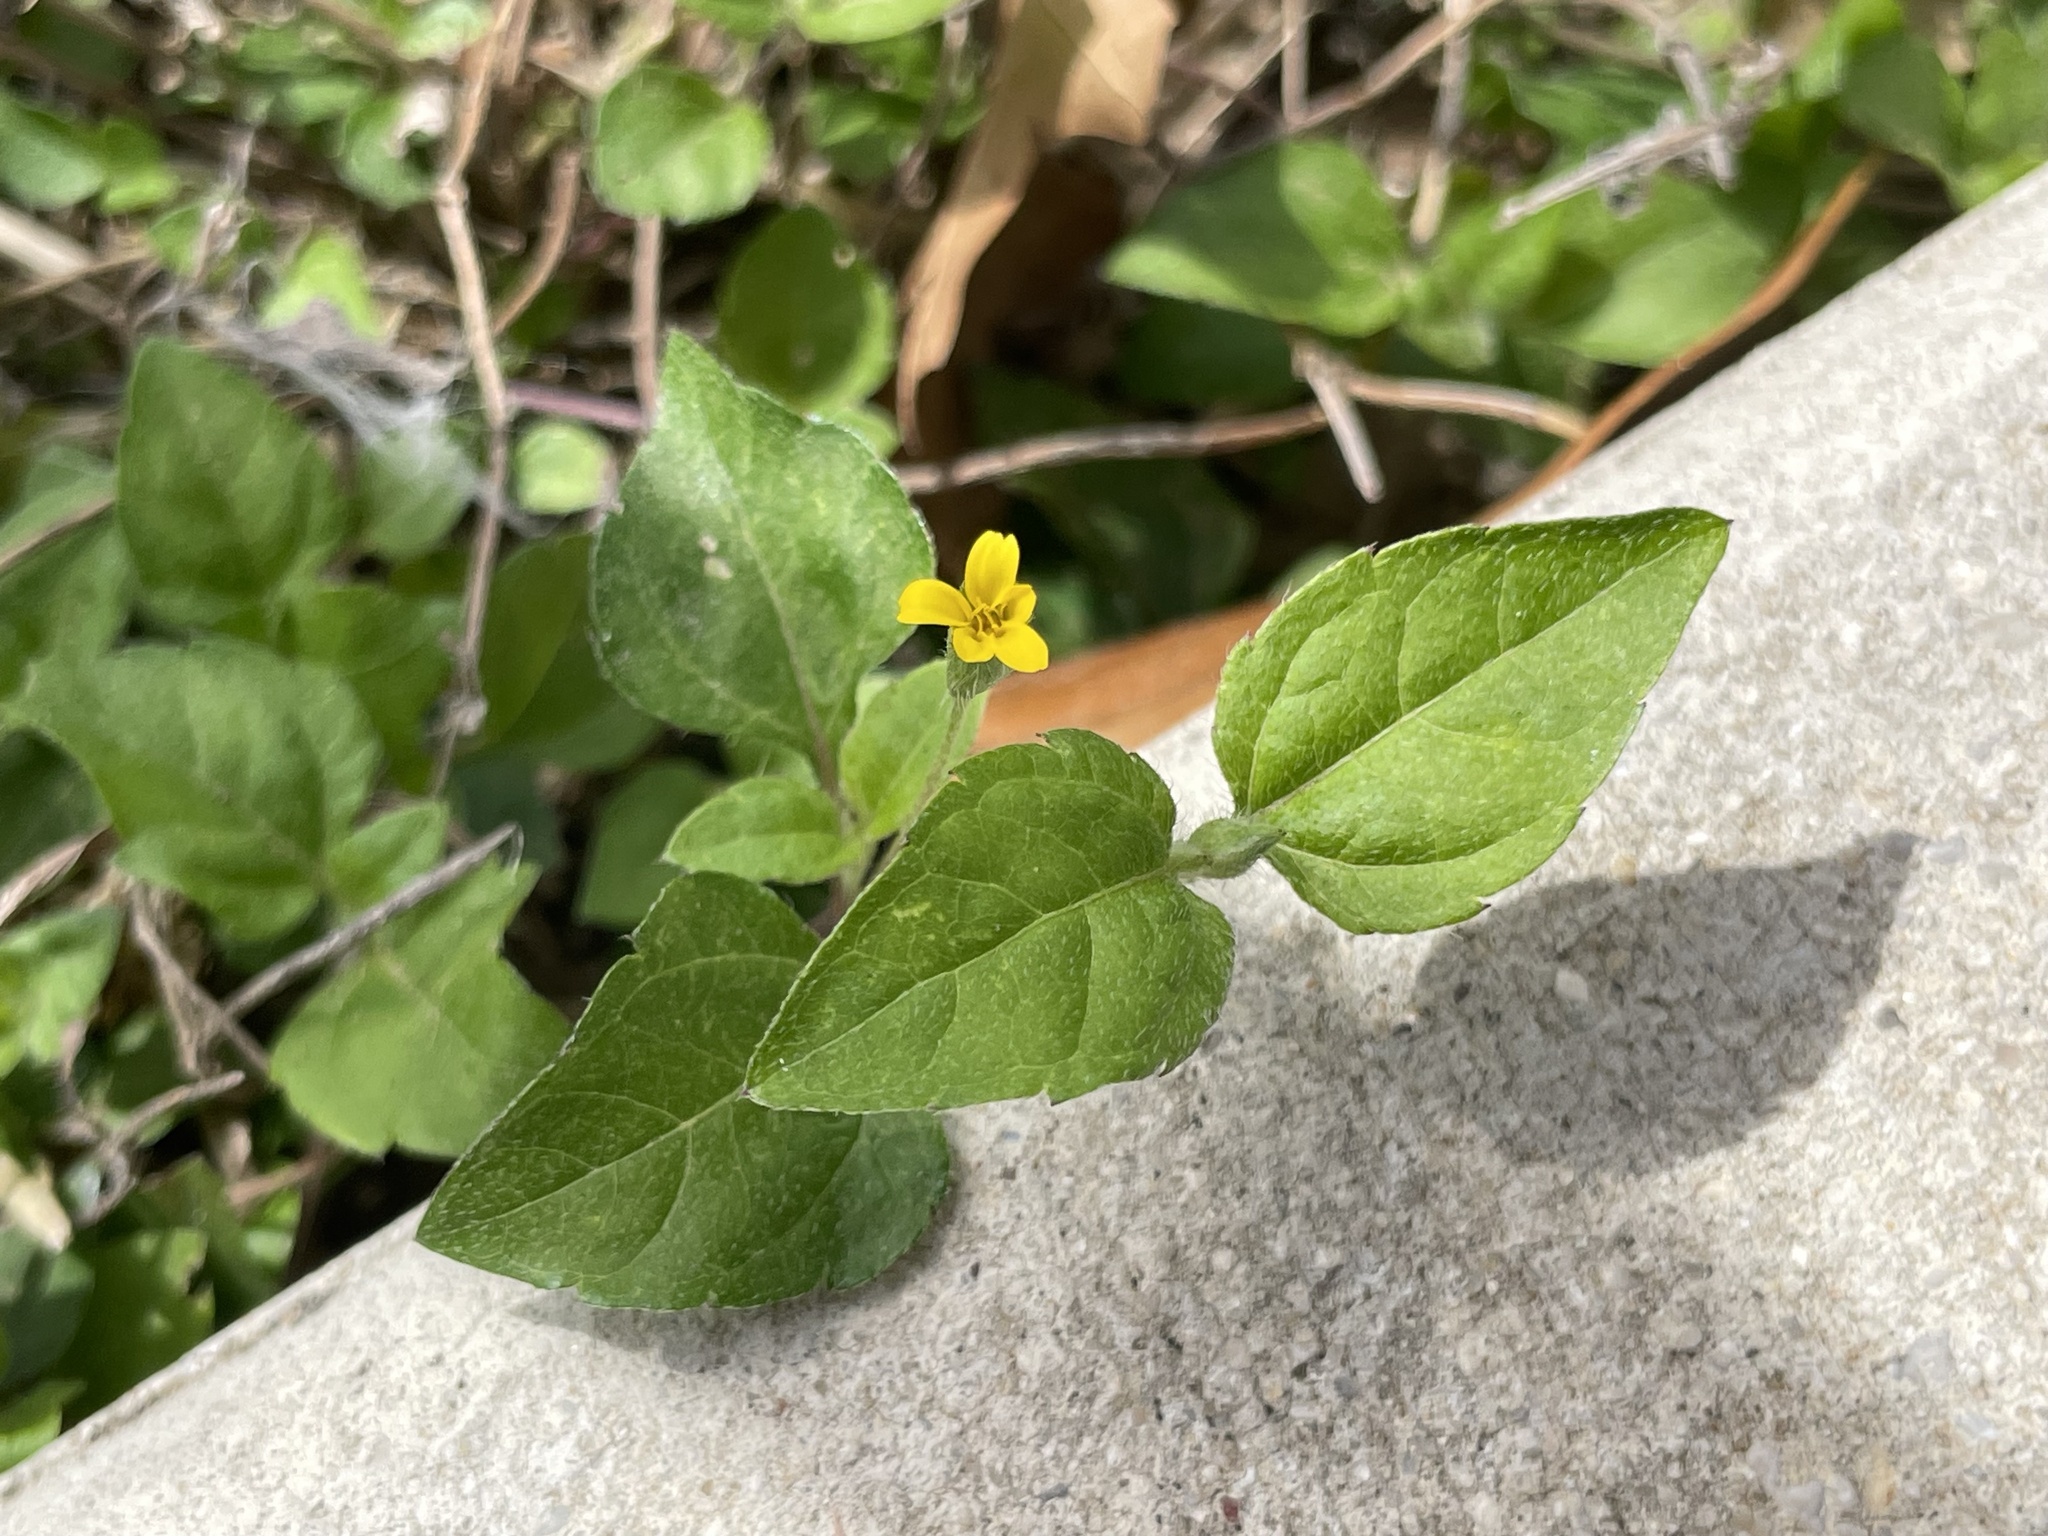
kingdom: Plantae
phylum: Tracheophyta
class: Magnoliopsida
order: Asterales
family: Asteraceae
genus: Calyptocarpus
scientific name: Calyptocarpus vialis
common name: Straggler daisy
